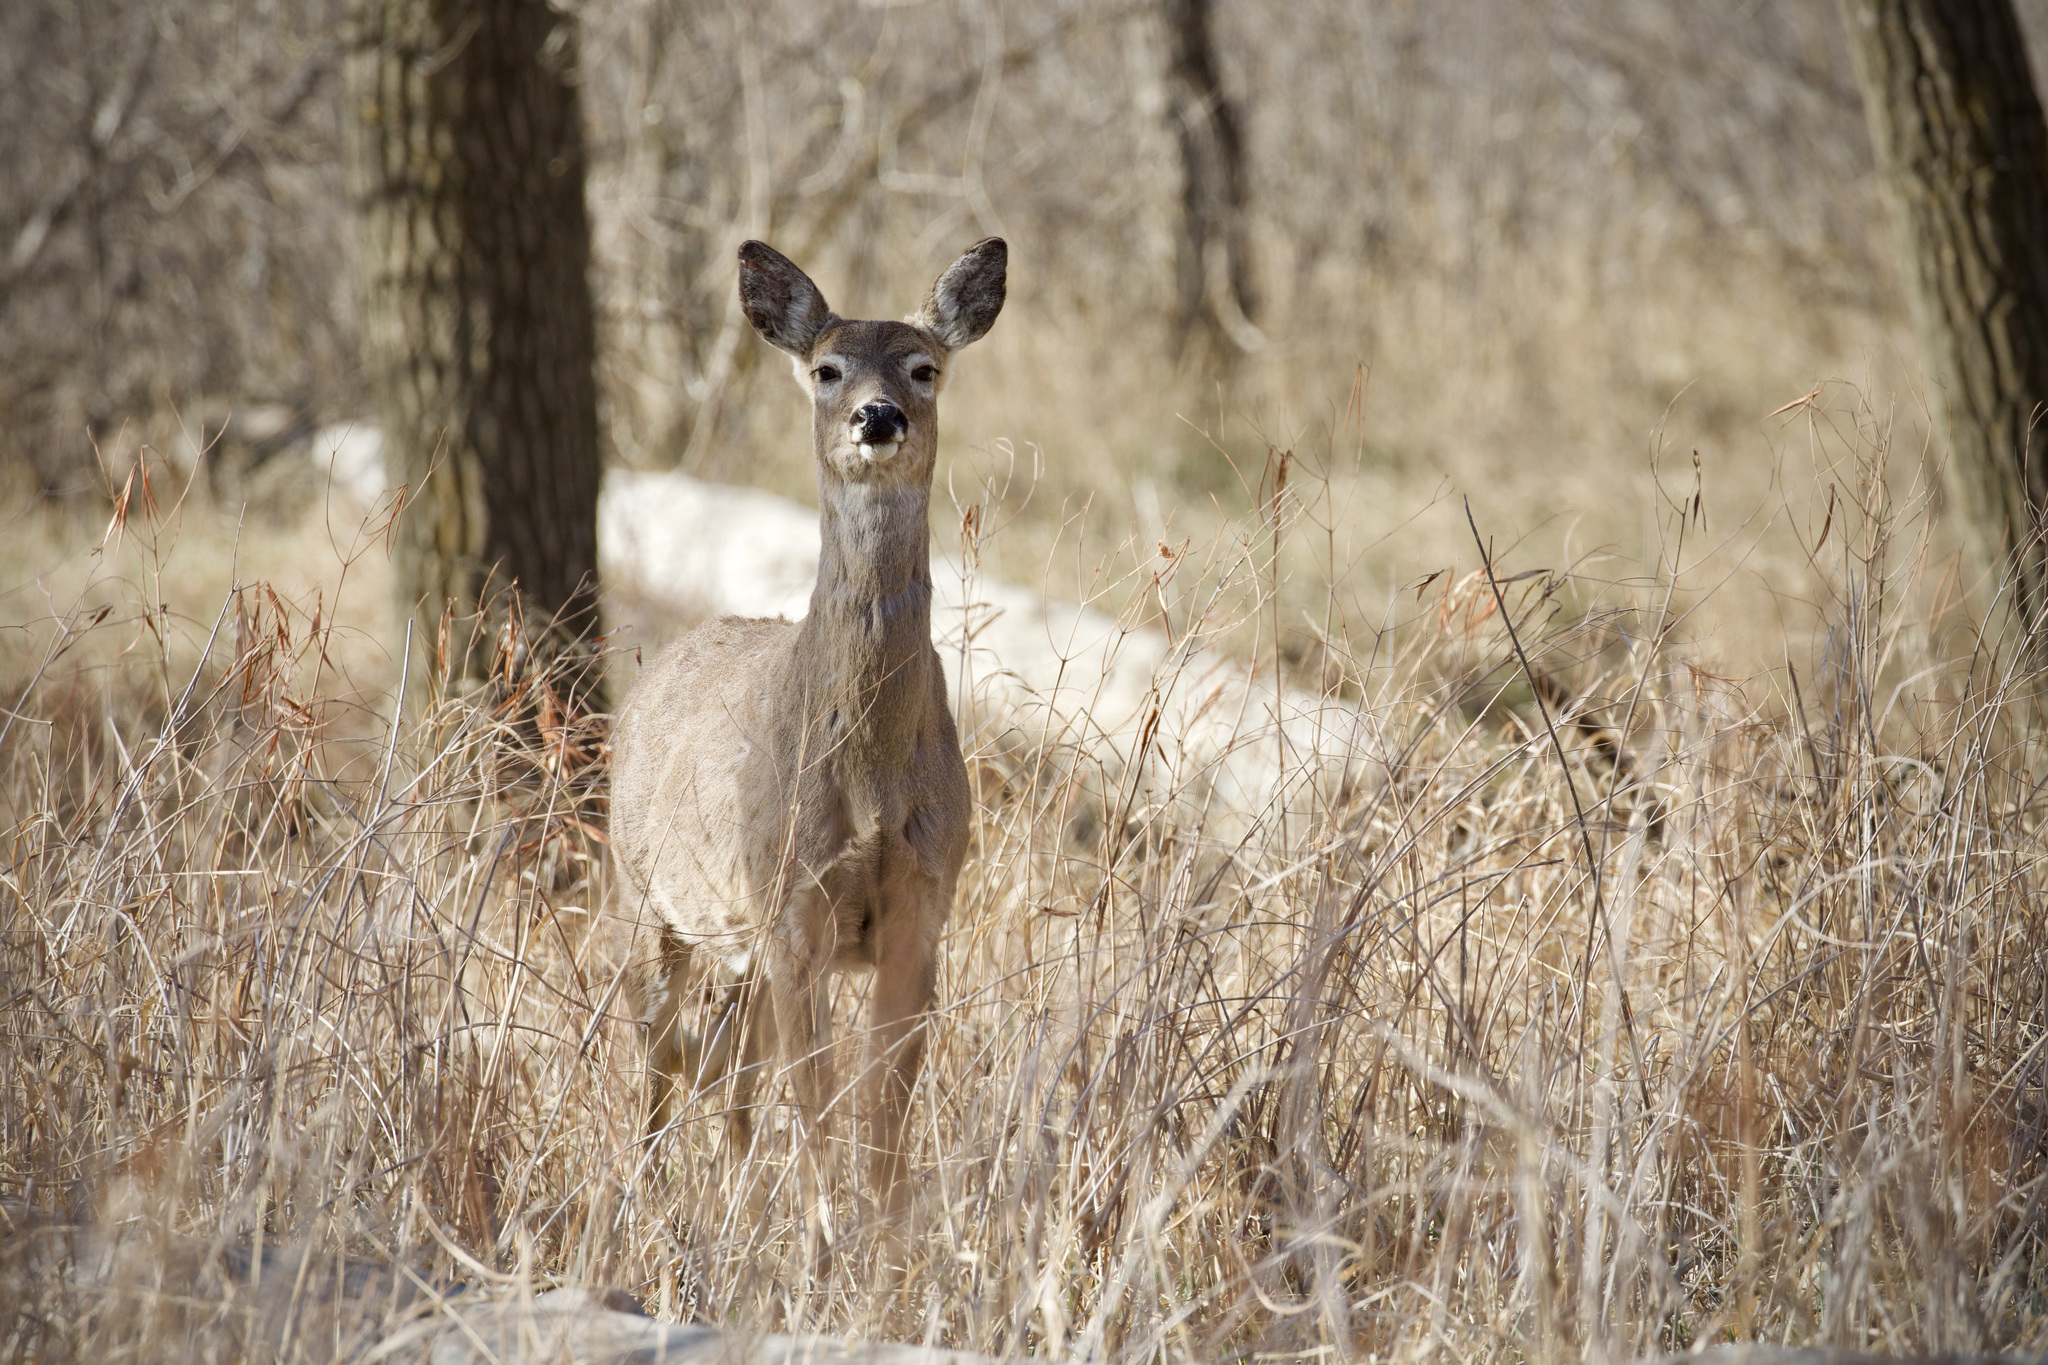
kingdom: Animalia
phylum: Chordata
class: Mammalia
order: Artiodactyla
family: Cervidae
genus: Odocoileus
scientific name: Odocoileus virginianus
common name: White-tailed deer
